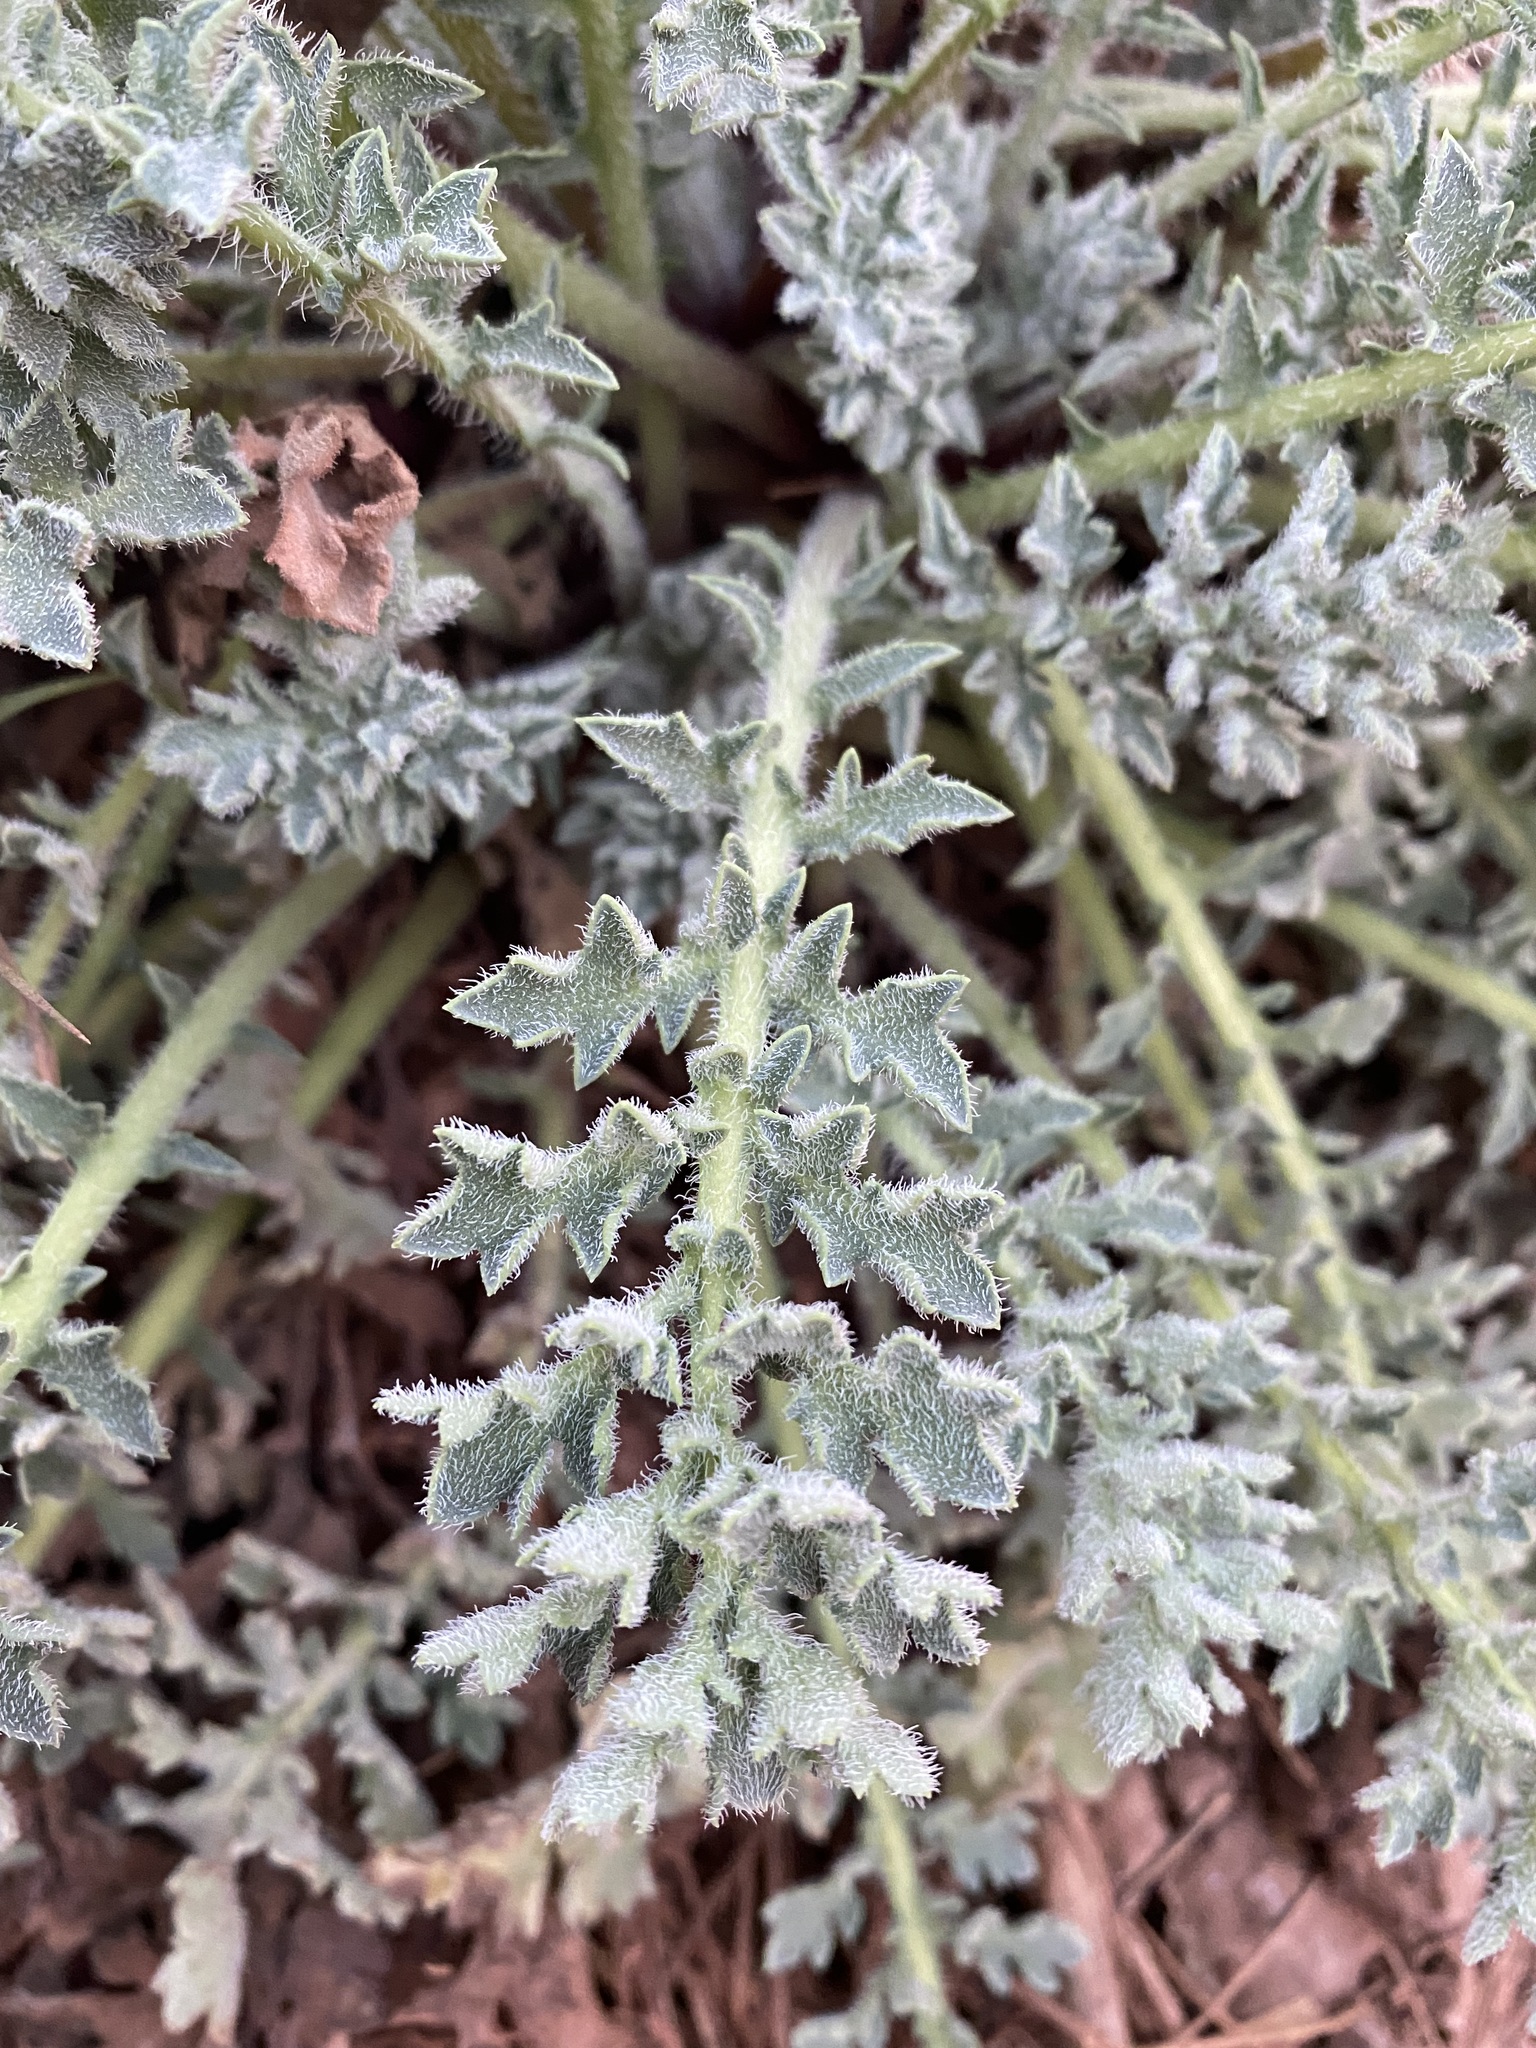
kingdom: Plantae
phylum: Tracheophyta
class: Magnoliopsida
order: Ranunculales
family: Papaveraceae
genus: Glaucium
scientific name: Glaucium flavum
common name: Yellow horned-poppy
